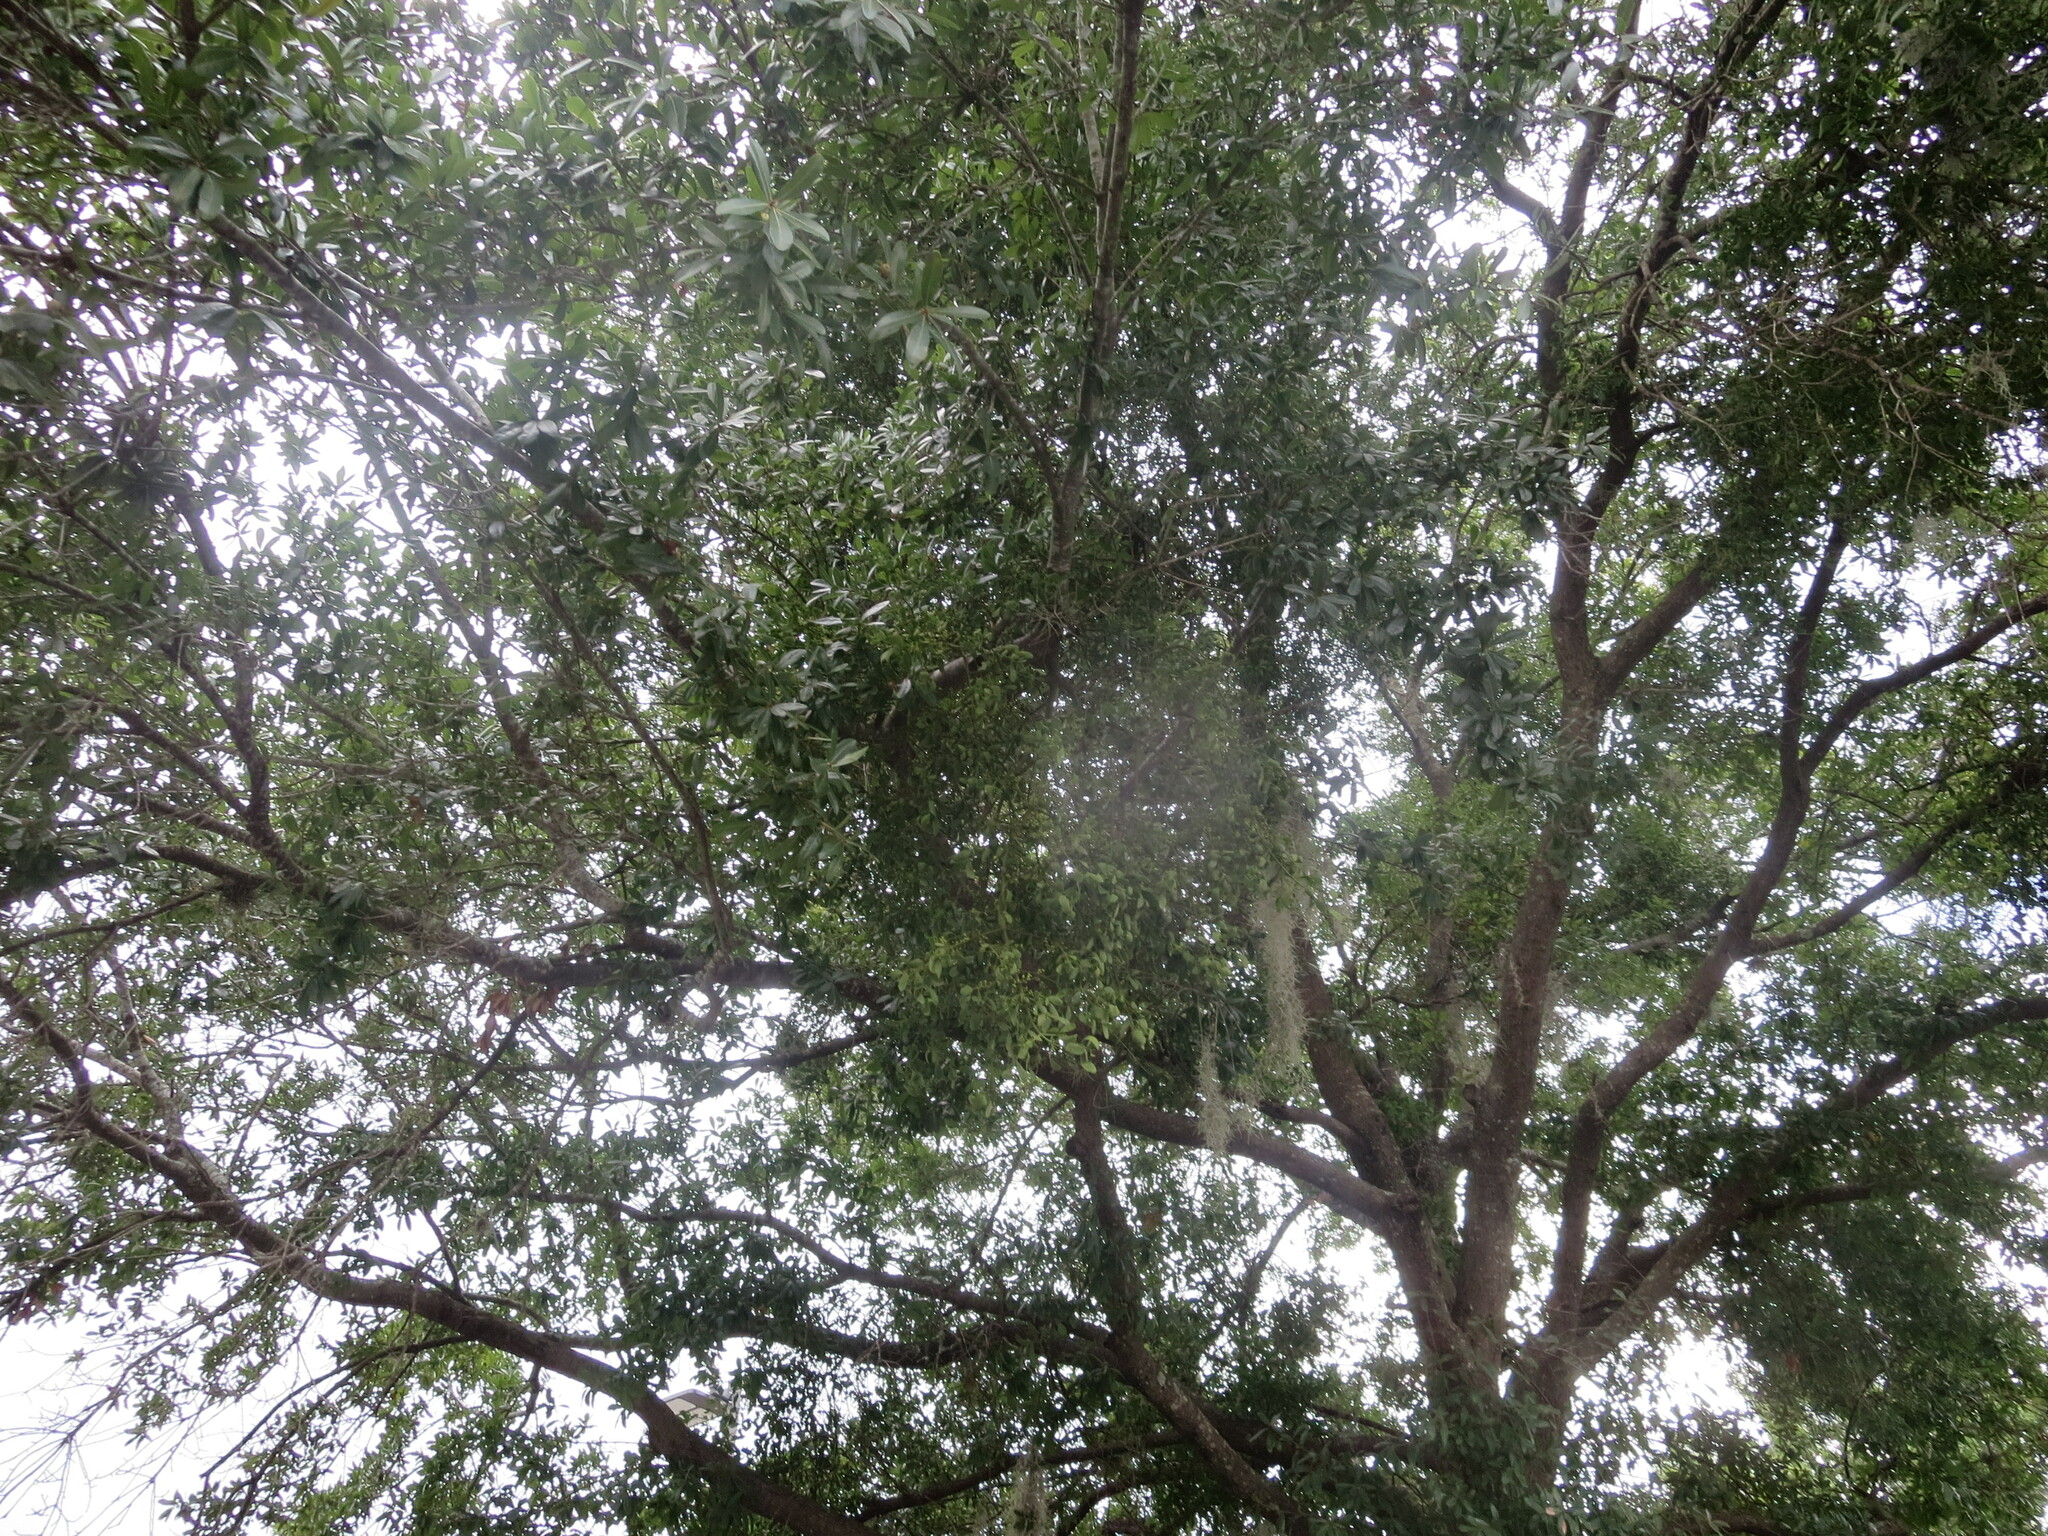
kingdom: Plantae
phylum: Tracheophyta
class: Magnoliopsida
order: Santalales
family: Viscaceae
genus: Phoradendron
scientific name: Phoradendron leucarpum
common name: Pacific mistletoe
